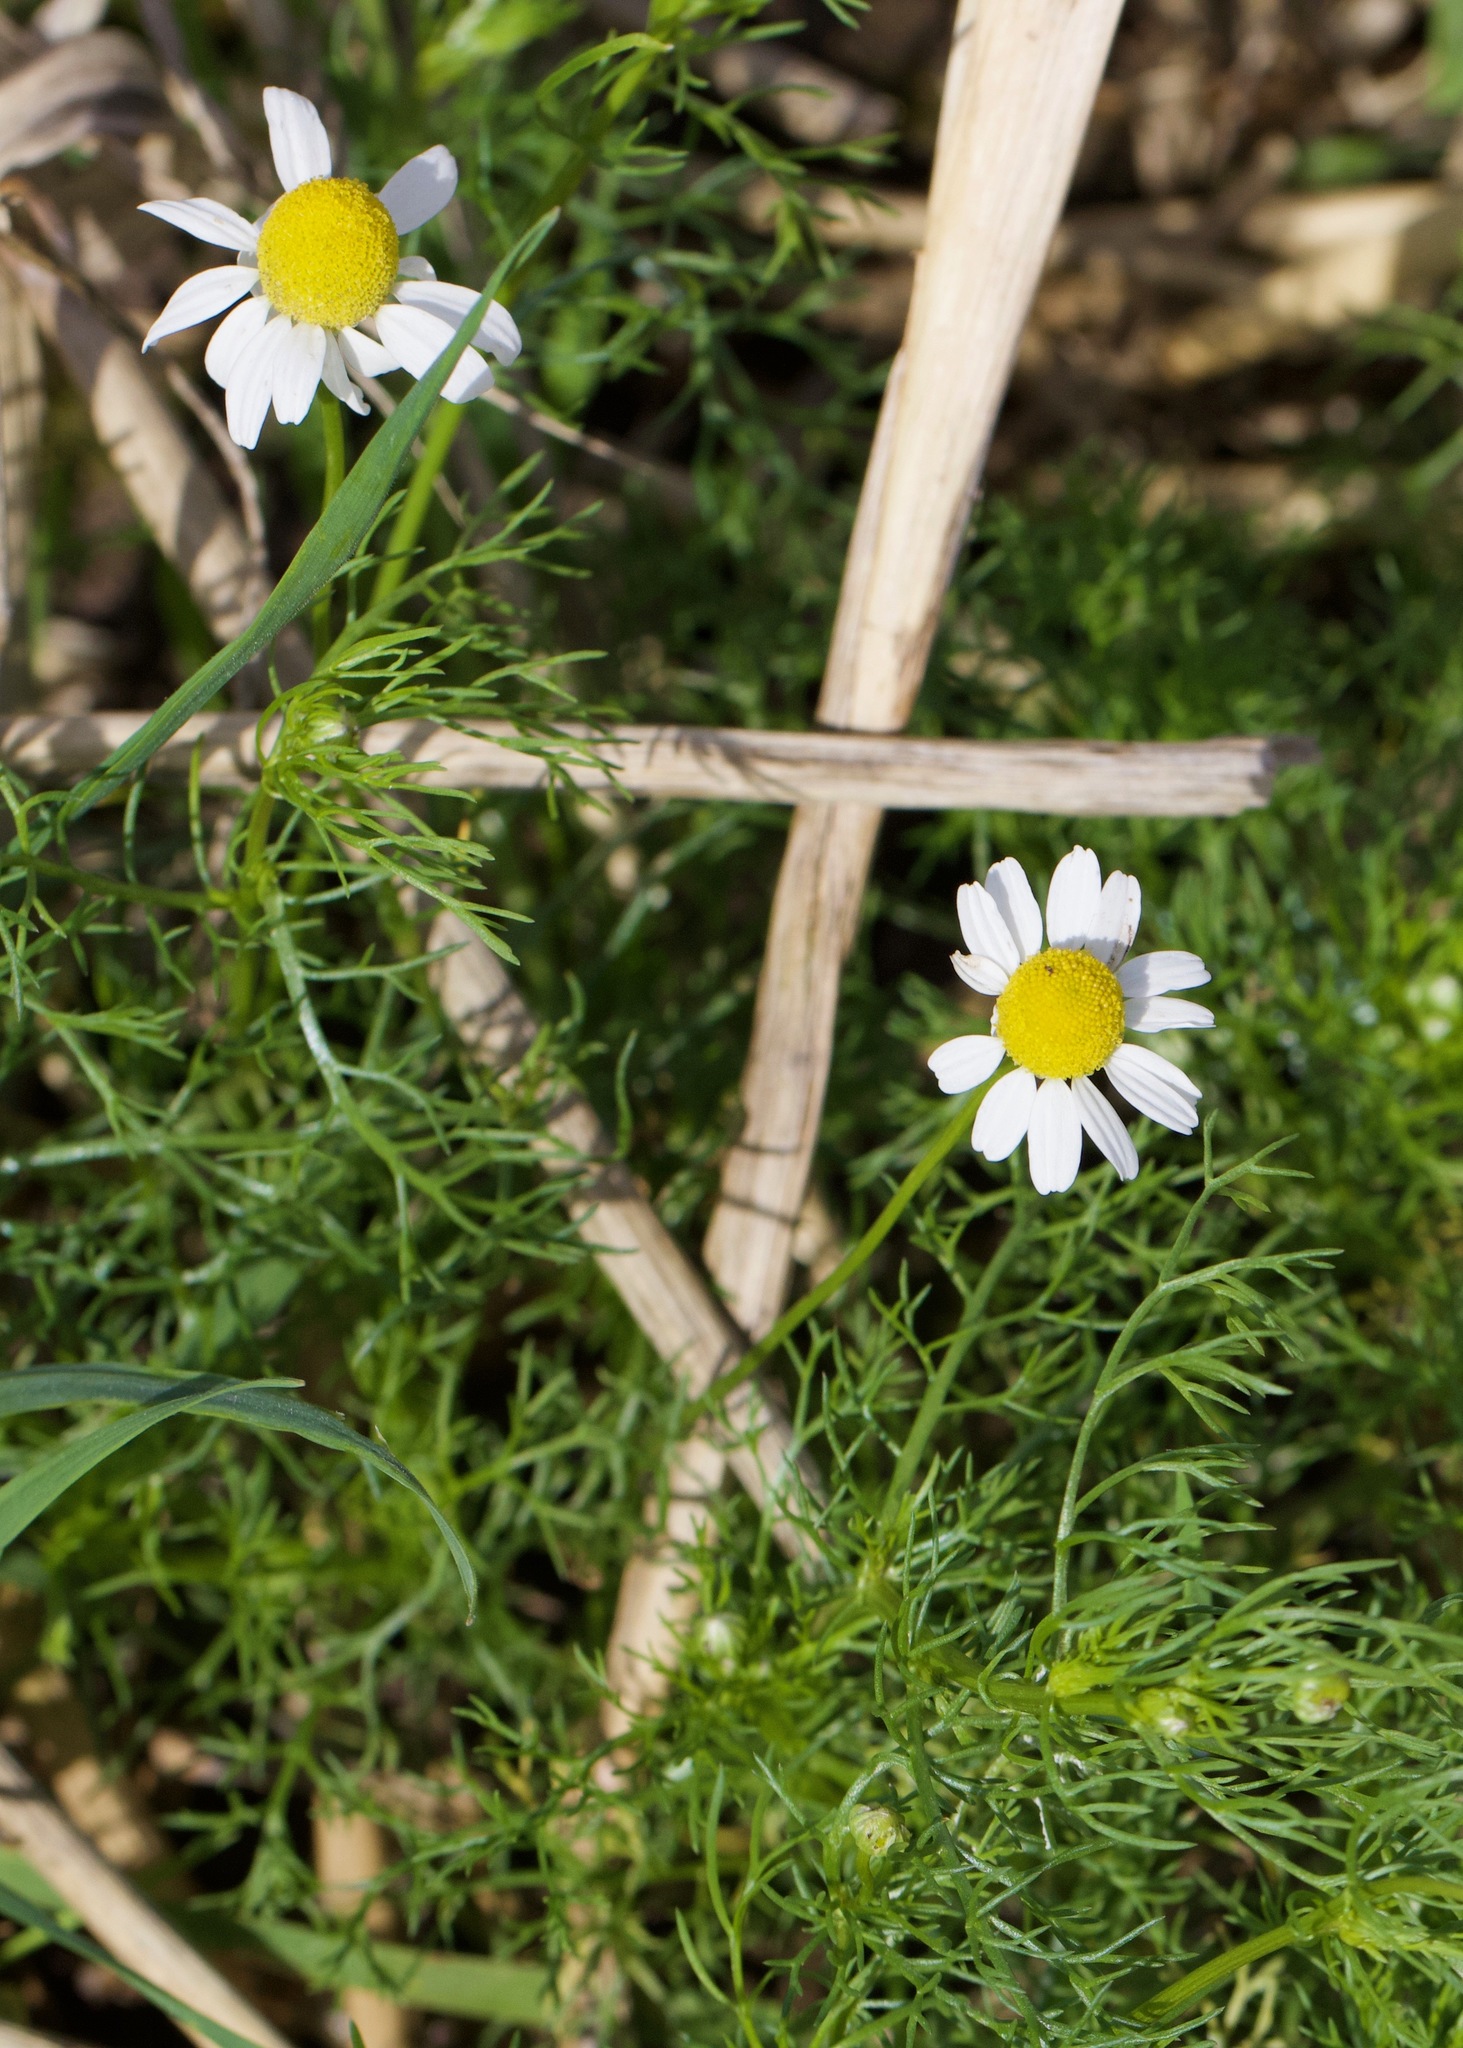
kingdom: Plantae
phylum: Tracheophyta
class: Magnoliopsida
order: Asterales
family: Asteraceae
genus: Matricaria
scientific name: Matricaria chamomilla
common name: Scented mayweed
